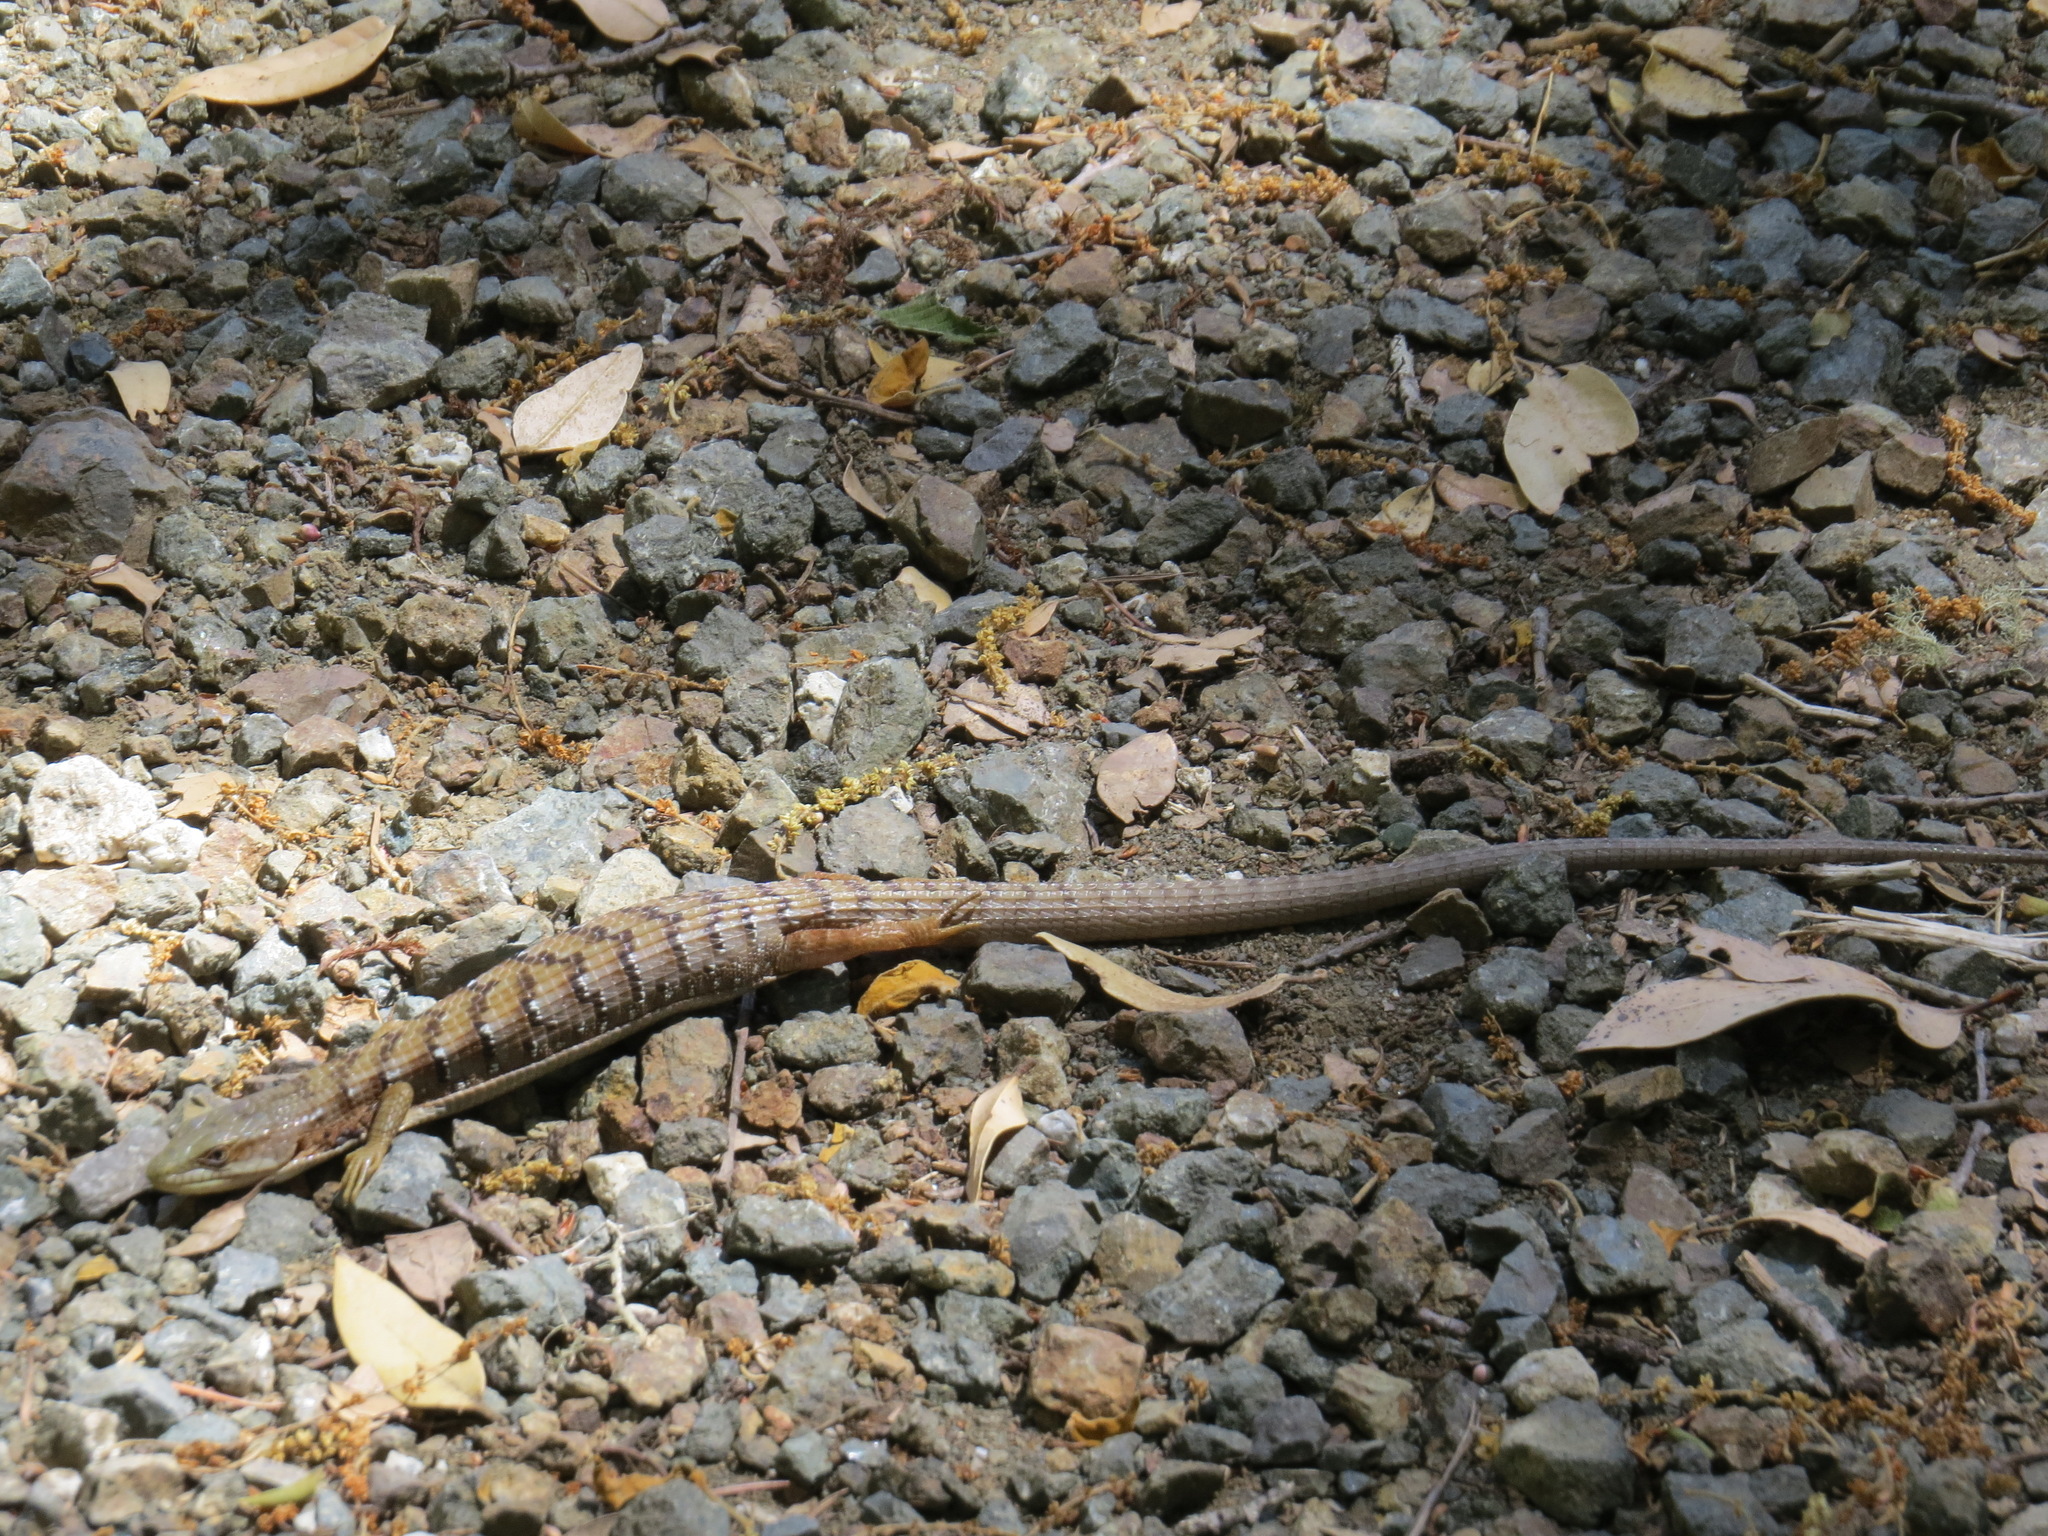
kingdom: Animalia
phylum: Chordata
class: Squamata
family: Anguidae
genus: Elgaria
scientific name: Elgaria multicarinata
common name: Southern alligator lizard
